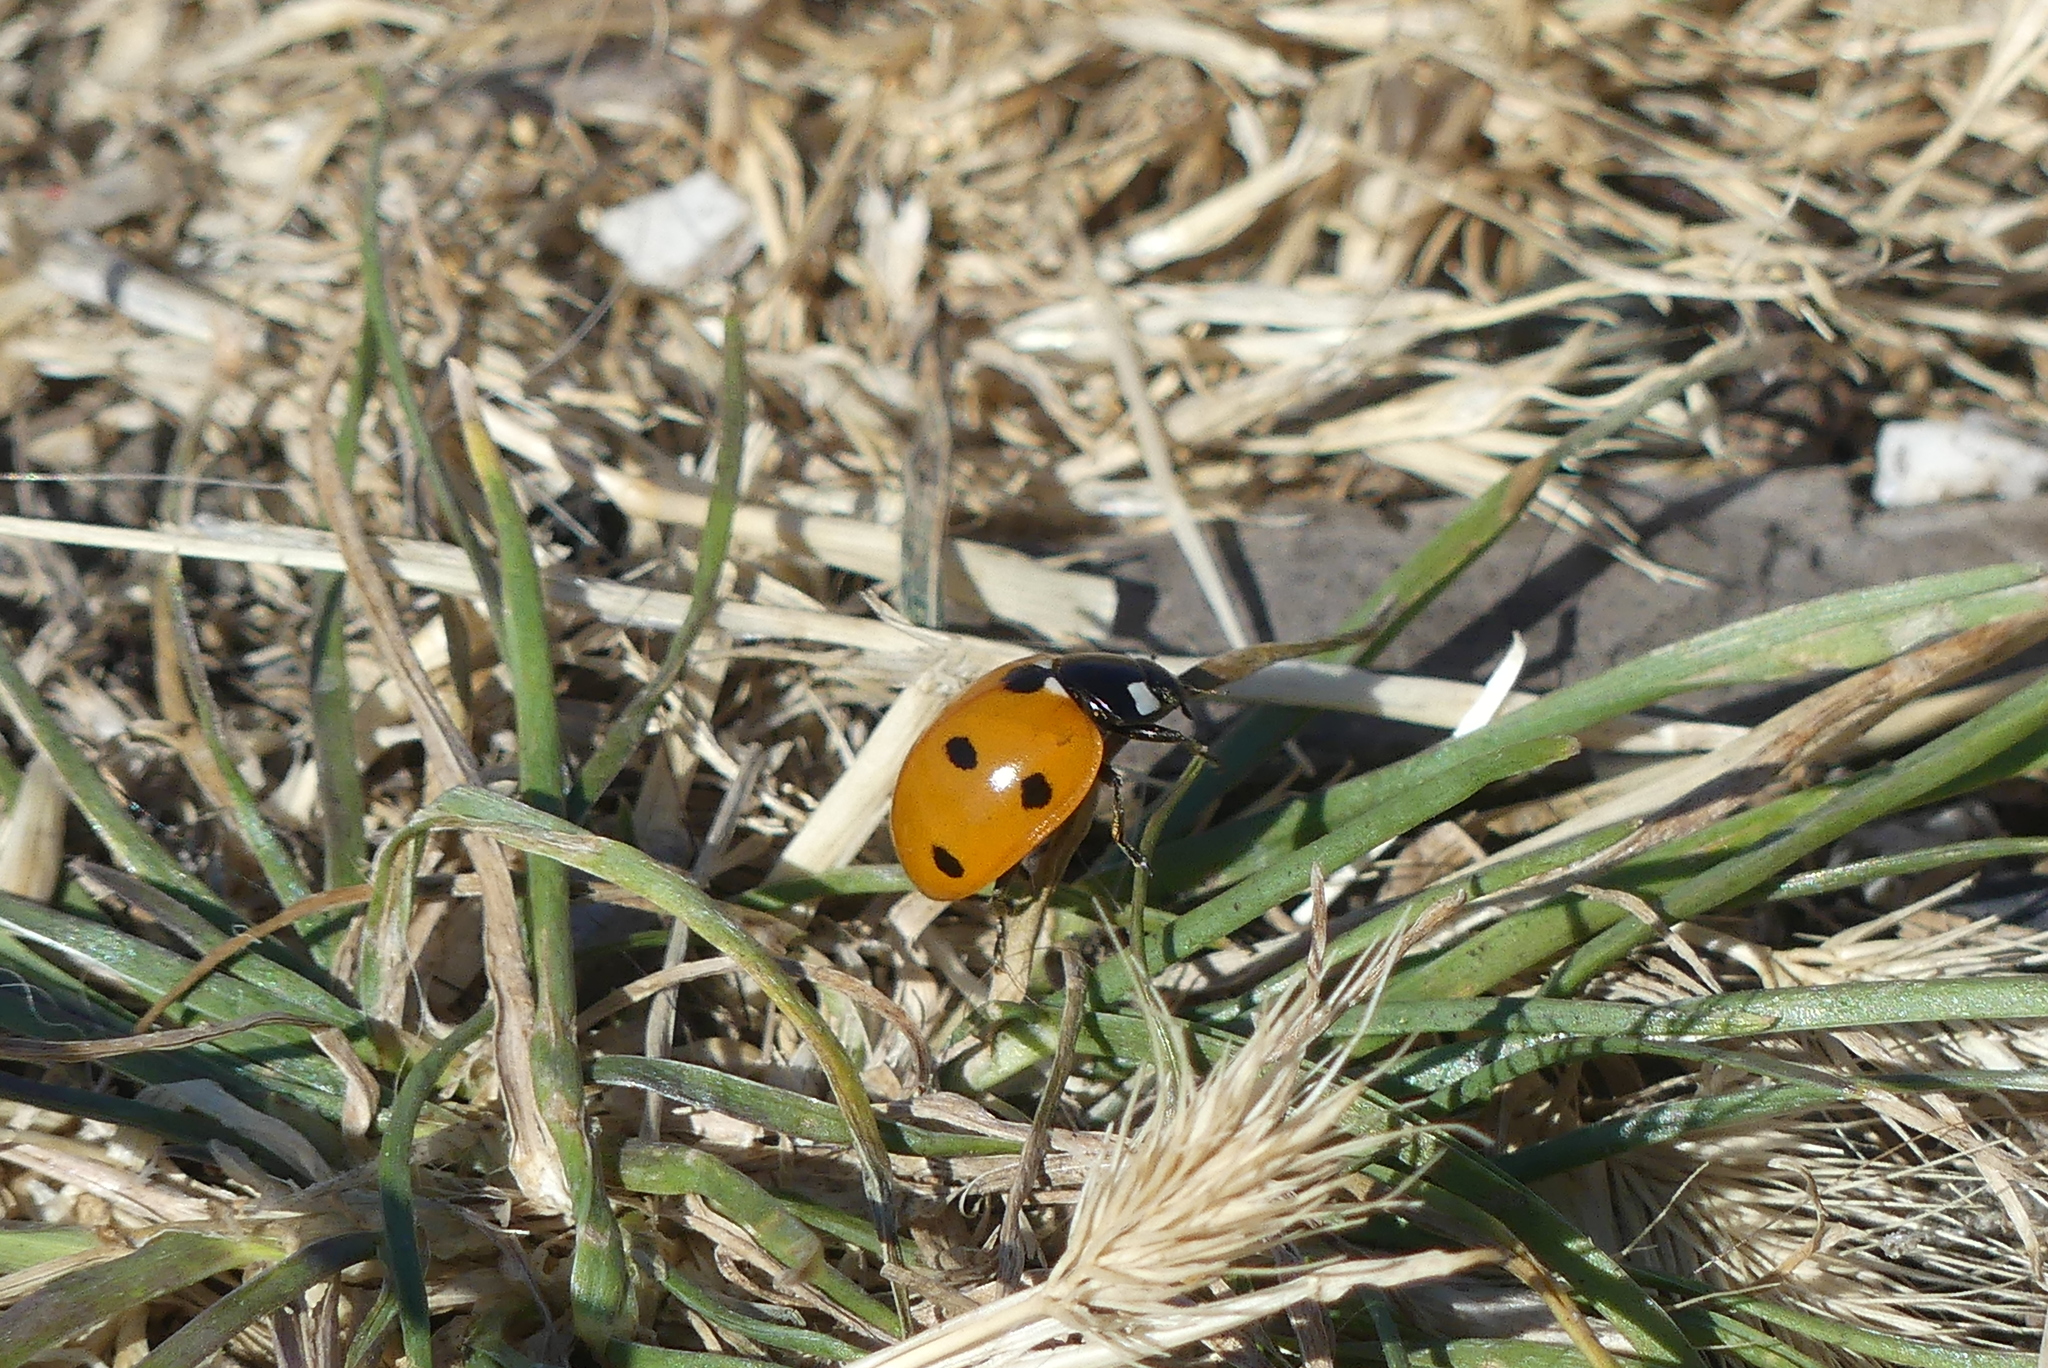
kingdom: Animalia
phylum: Arthropoda
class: Insecta
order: Coleoptera
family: Coccinellidae
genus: Coccinella
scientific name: Coccinella septempunctata
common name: Sevenspotted lady beetle
